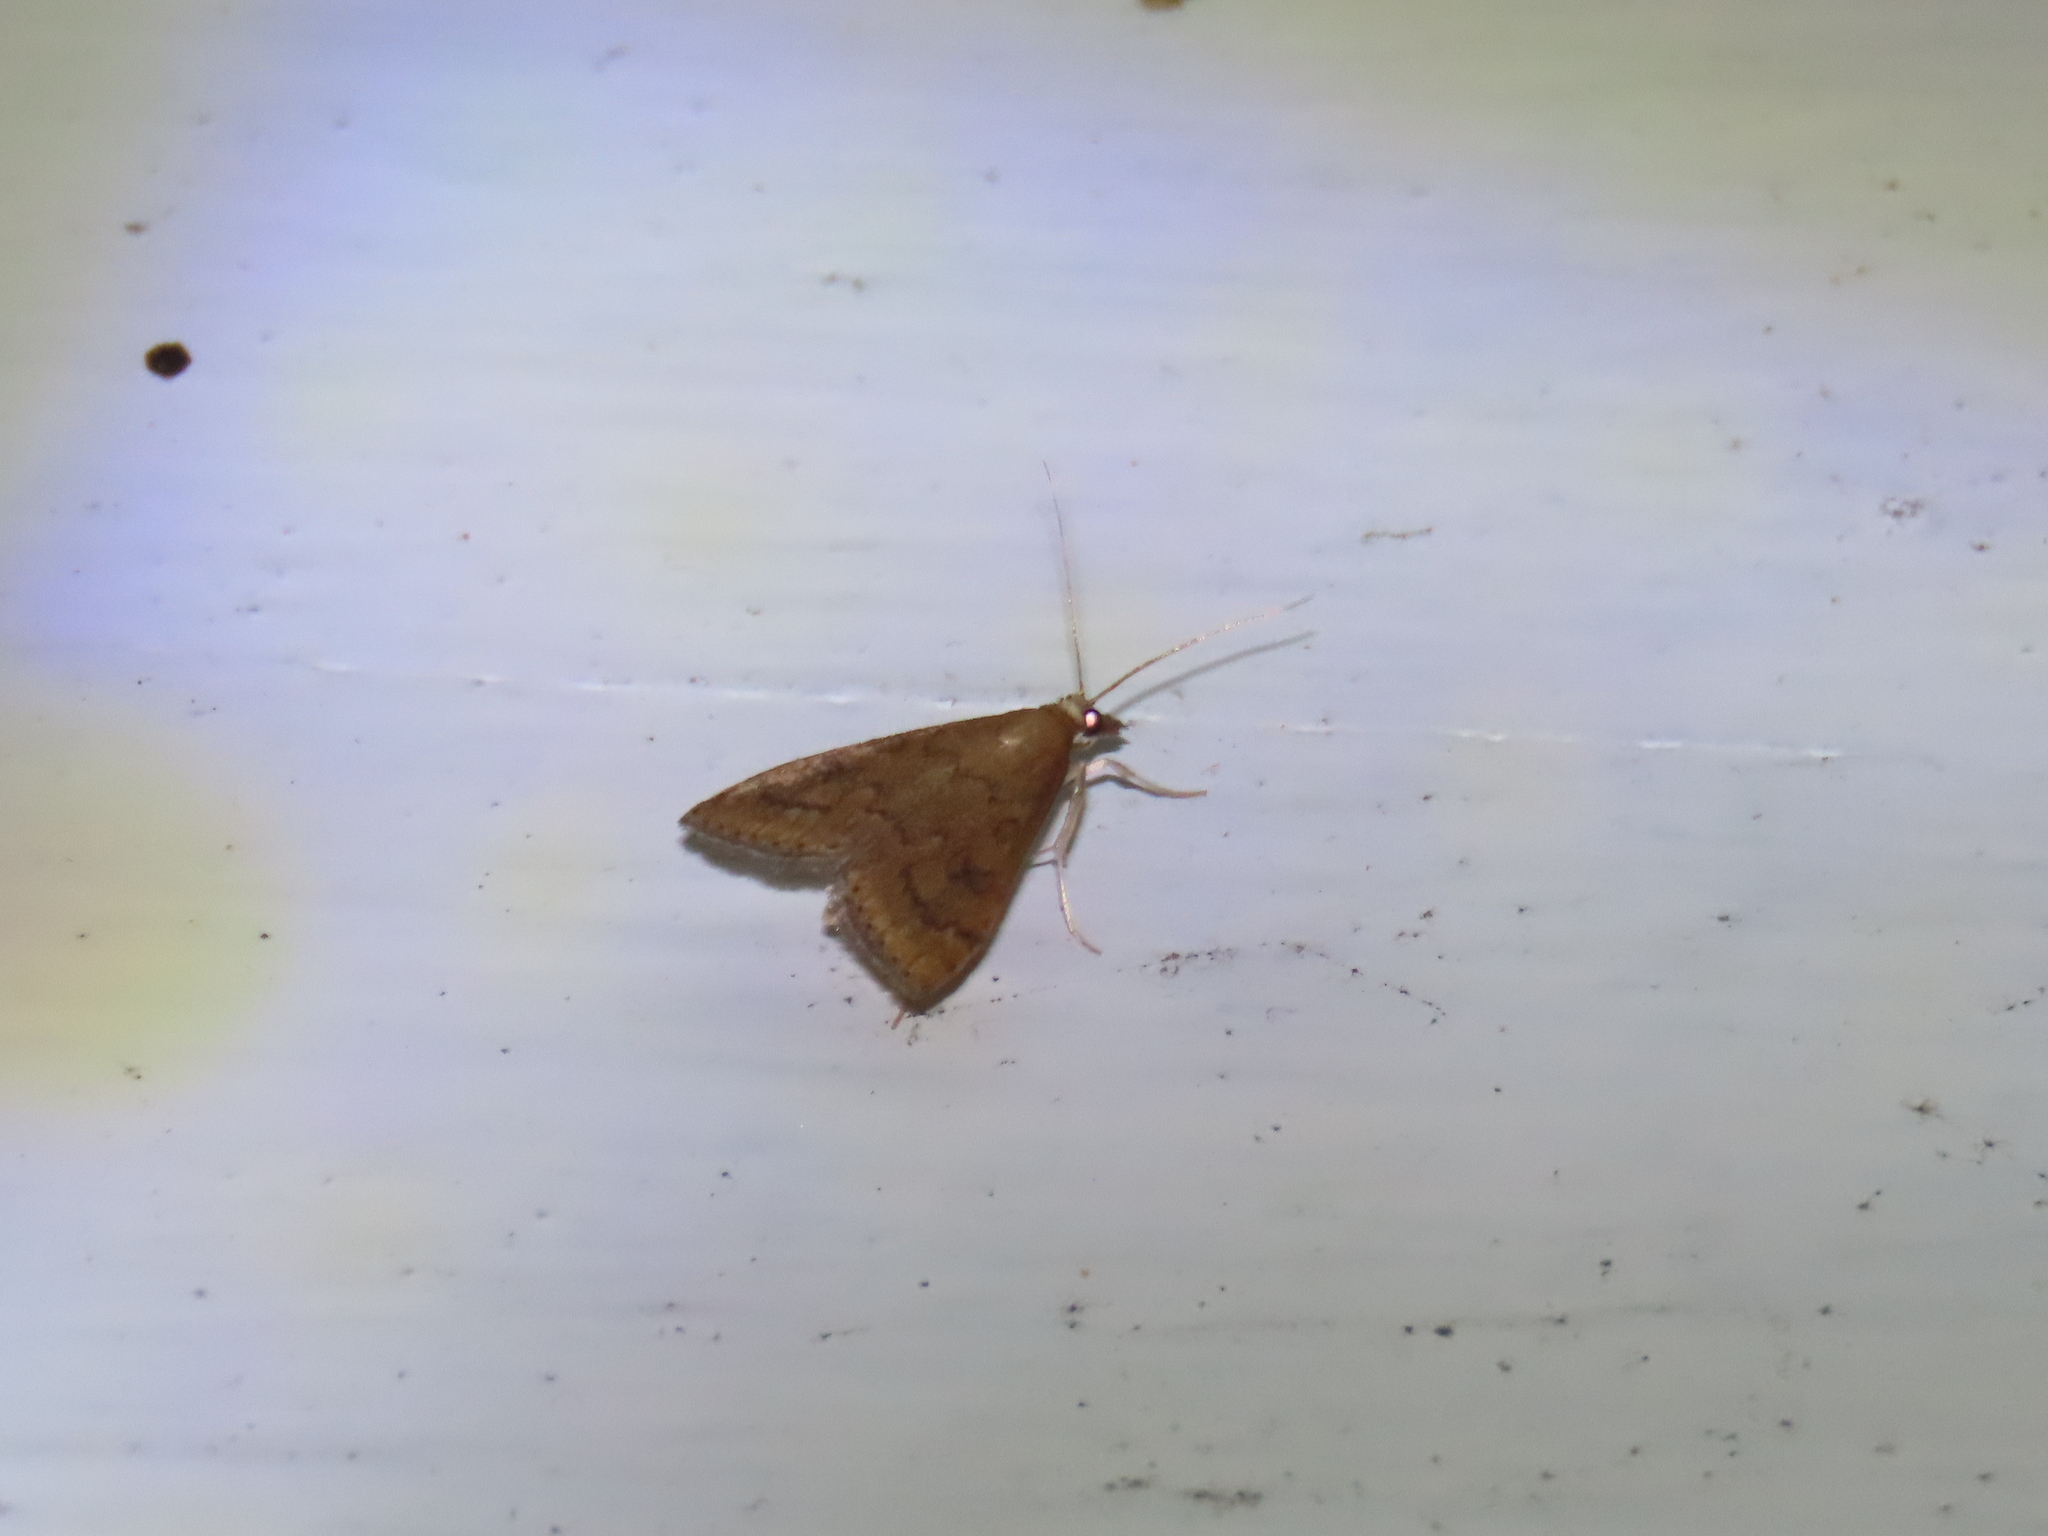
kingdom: Animalia
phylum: Arthropoda
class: Insecta
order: Lepidoptera
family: Crambidae
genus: Udea
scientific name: Udea rubigalis
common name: Celery leaftier moth
